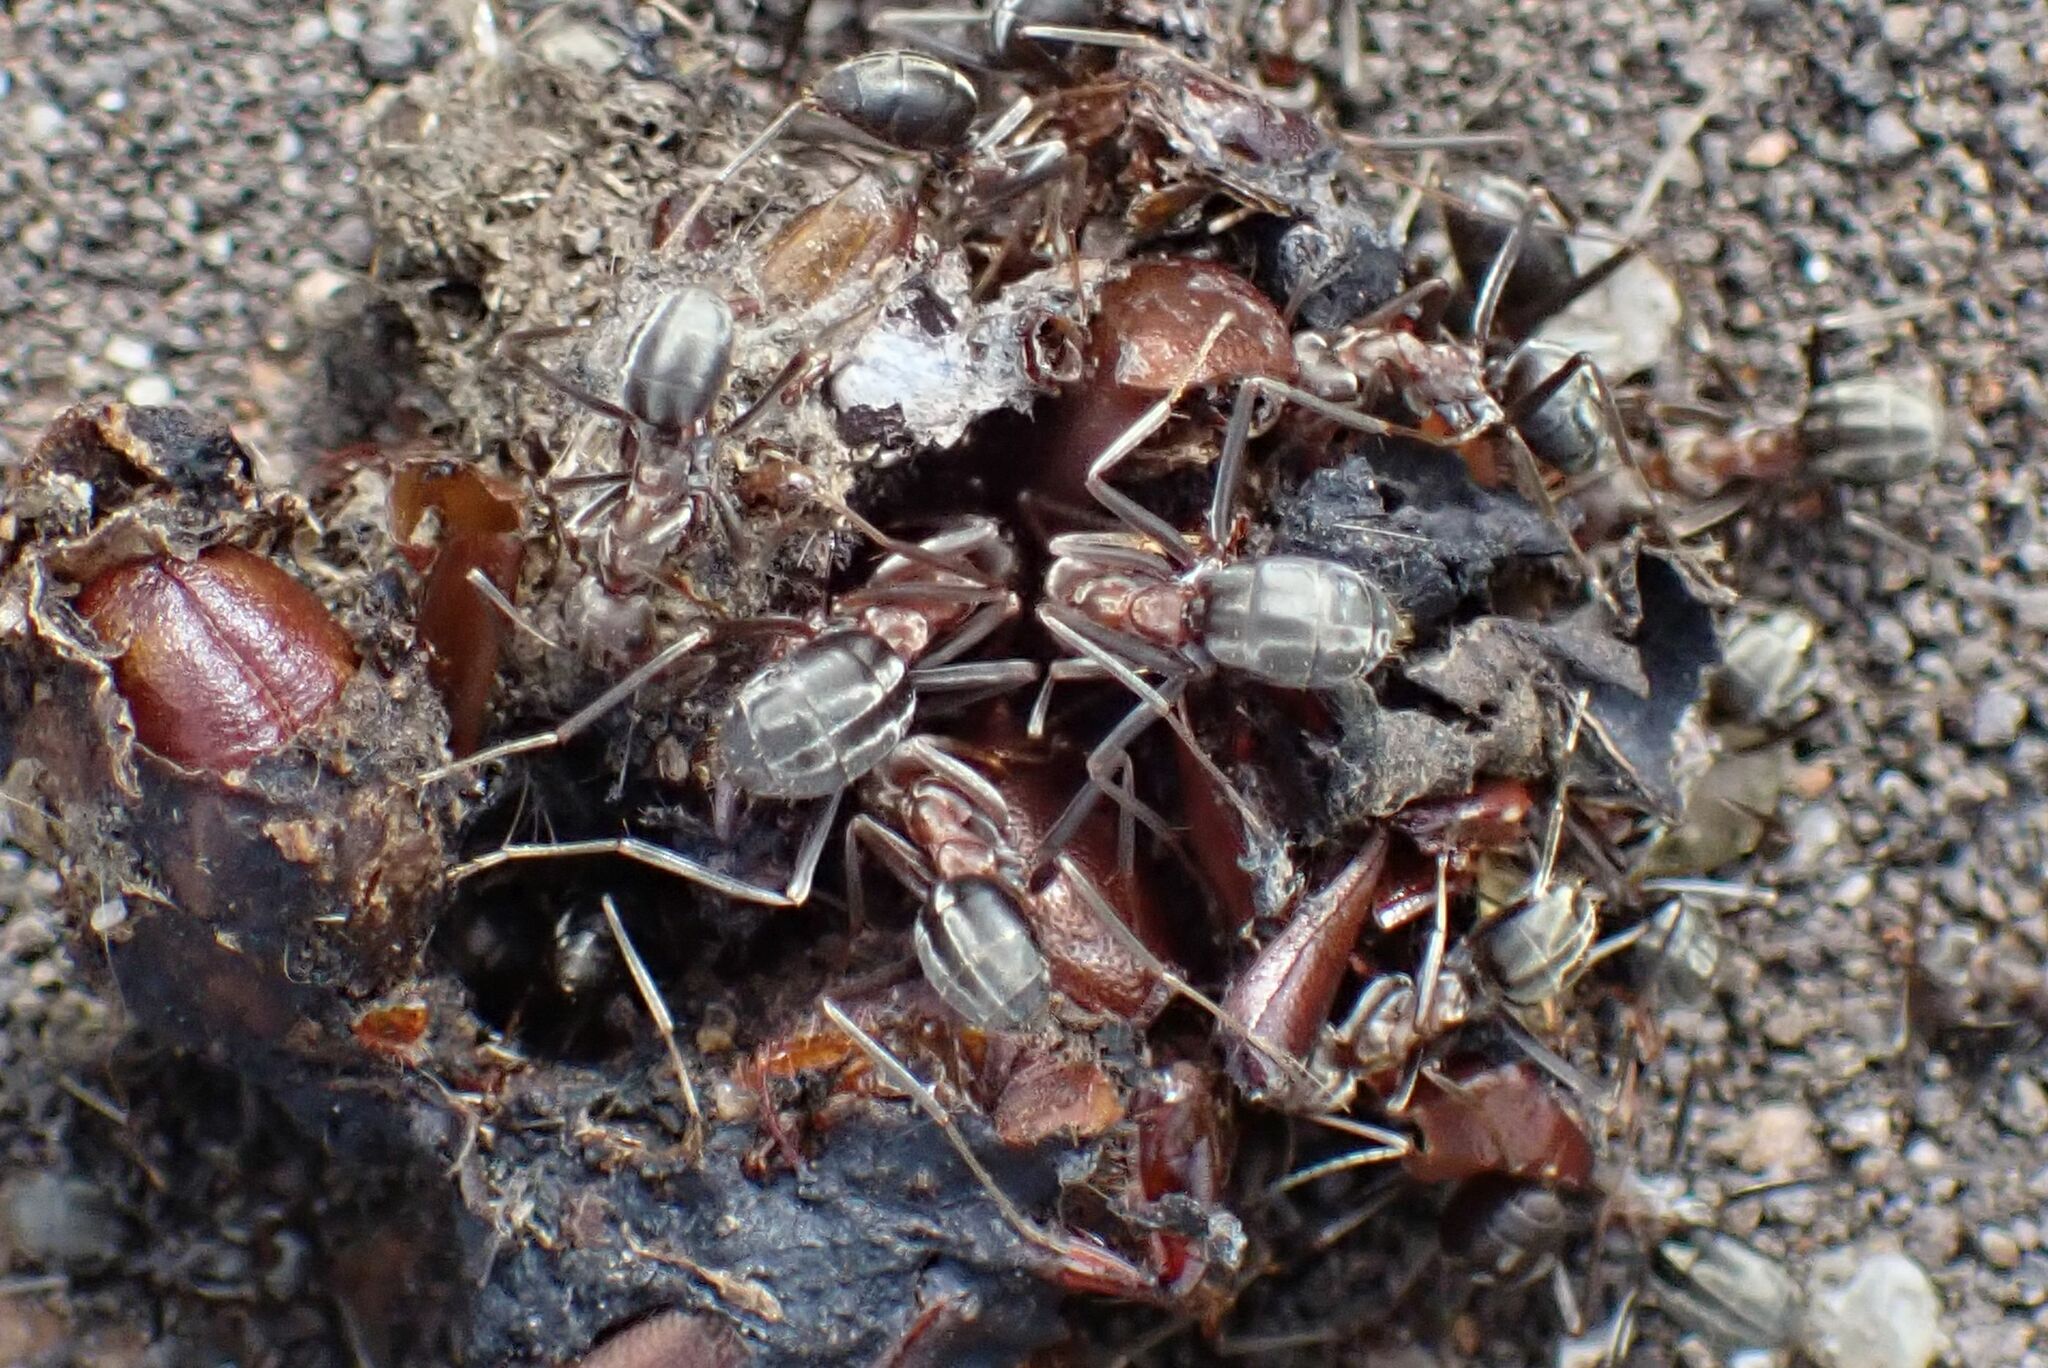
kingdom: Animalia
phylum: Arthropoda
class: Insecta
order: Hymenoptera
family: Formicidae
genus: Anoplolepis
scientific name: Anoplolepis custodiens
